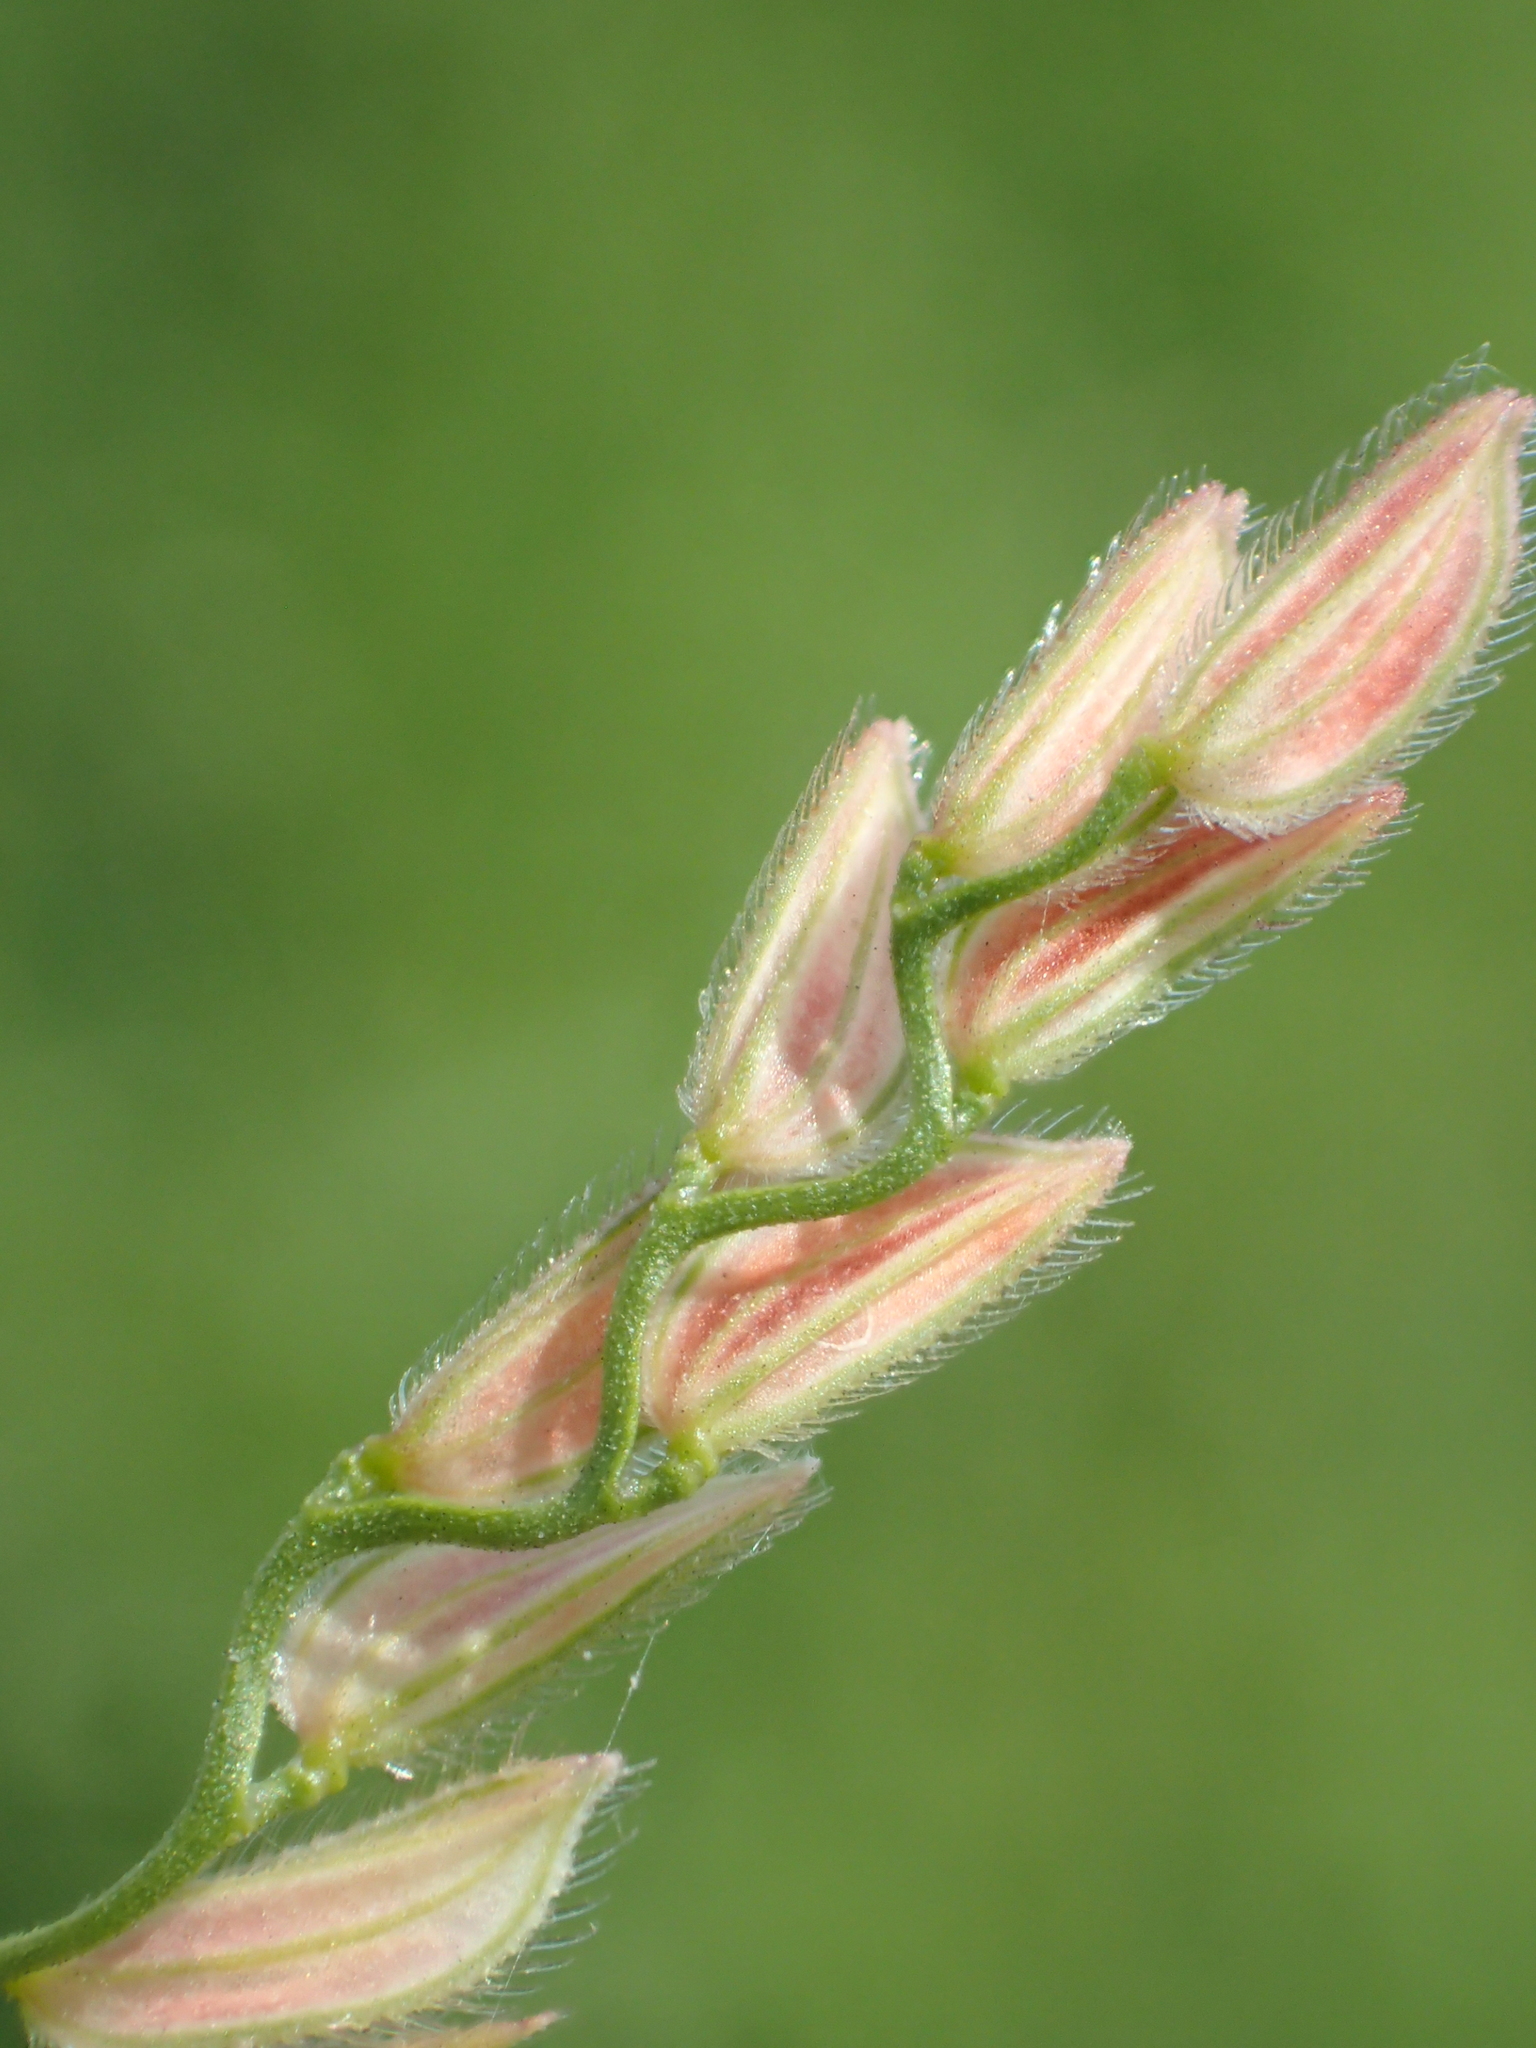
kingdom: Plantae
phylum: Tracheophyta
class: Liliopsida
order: Poales
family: Poaceae
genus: Leersia
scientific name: Leersia hexandra
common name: Southern cut grass
